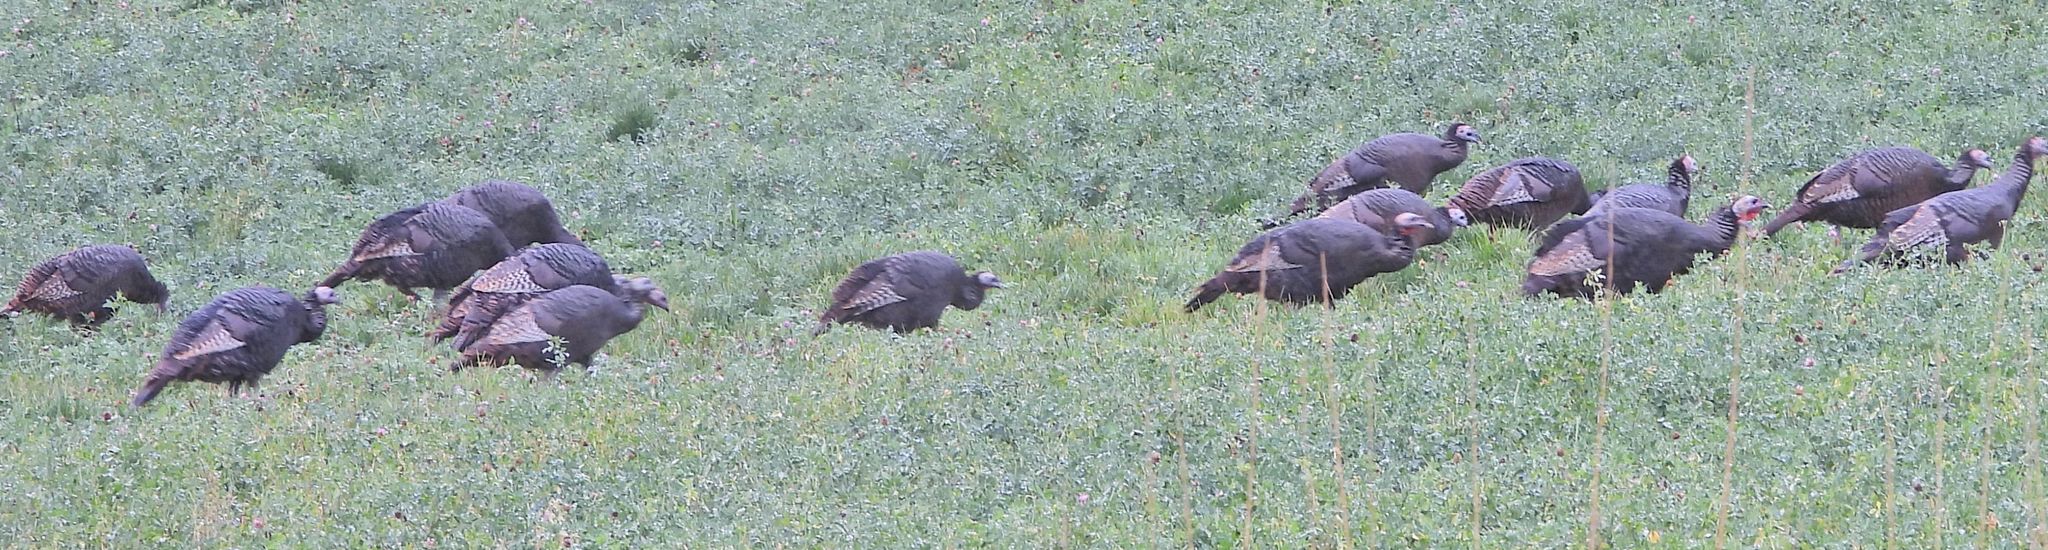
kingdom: Animalia
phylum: Chordata
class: Aves
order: Galliformes
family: Phasianidae
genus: Meleagris
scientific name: Meleagris gallopavo
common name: Wild turkey
